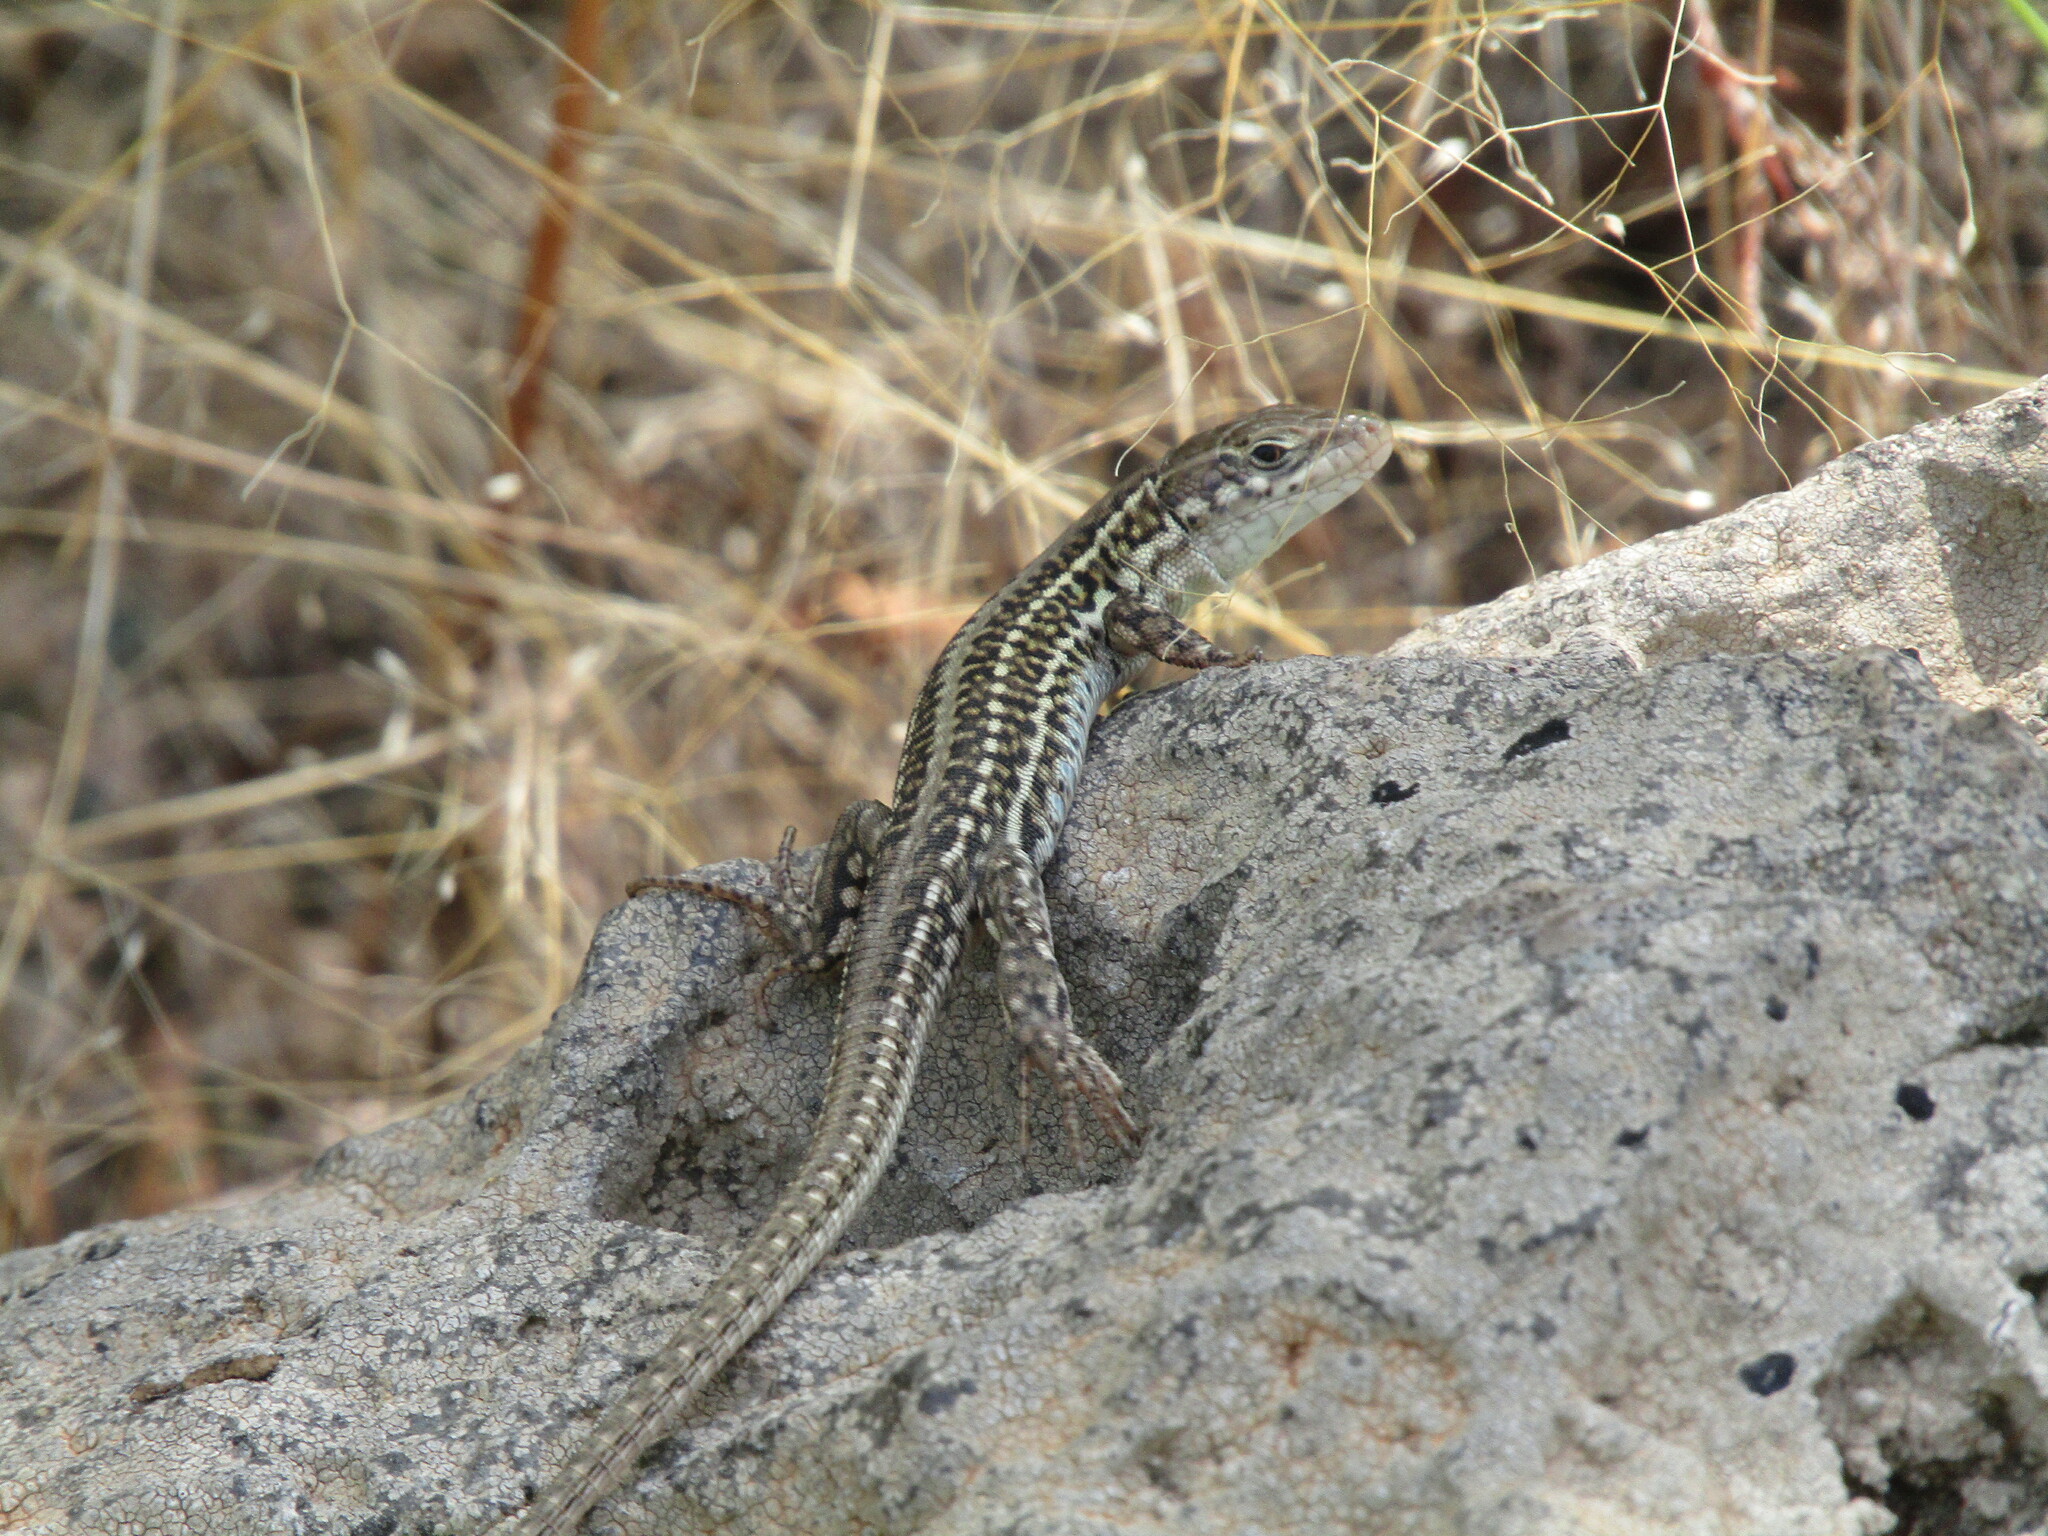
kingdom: Animalia
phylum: Chordata
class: Squamata
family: Lacertidae
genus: Podarcis
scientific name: Podarcis erhardii
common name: Erhard's wall lizard
